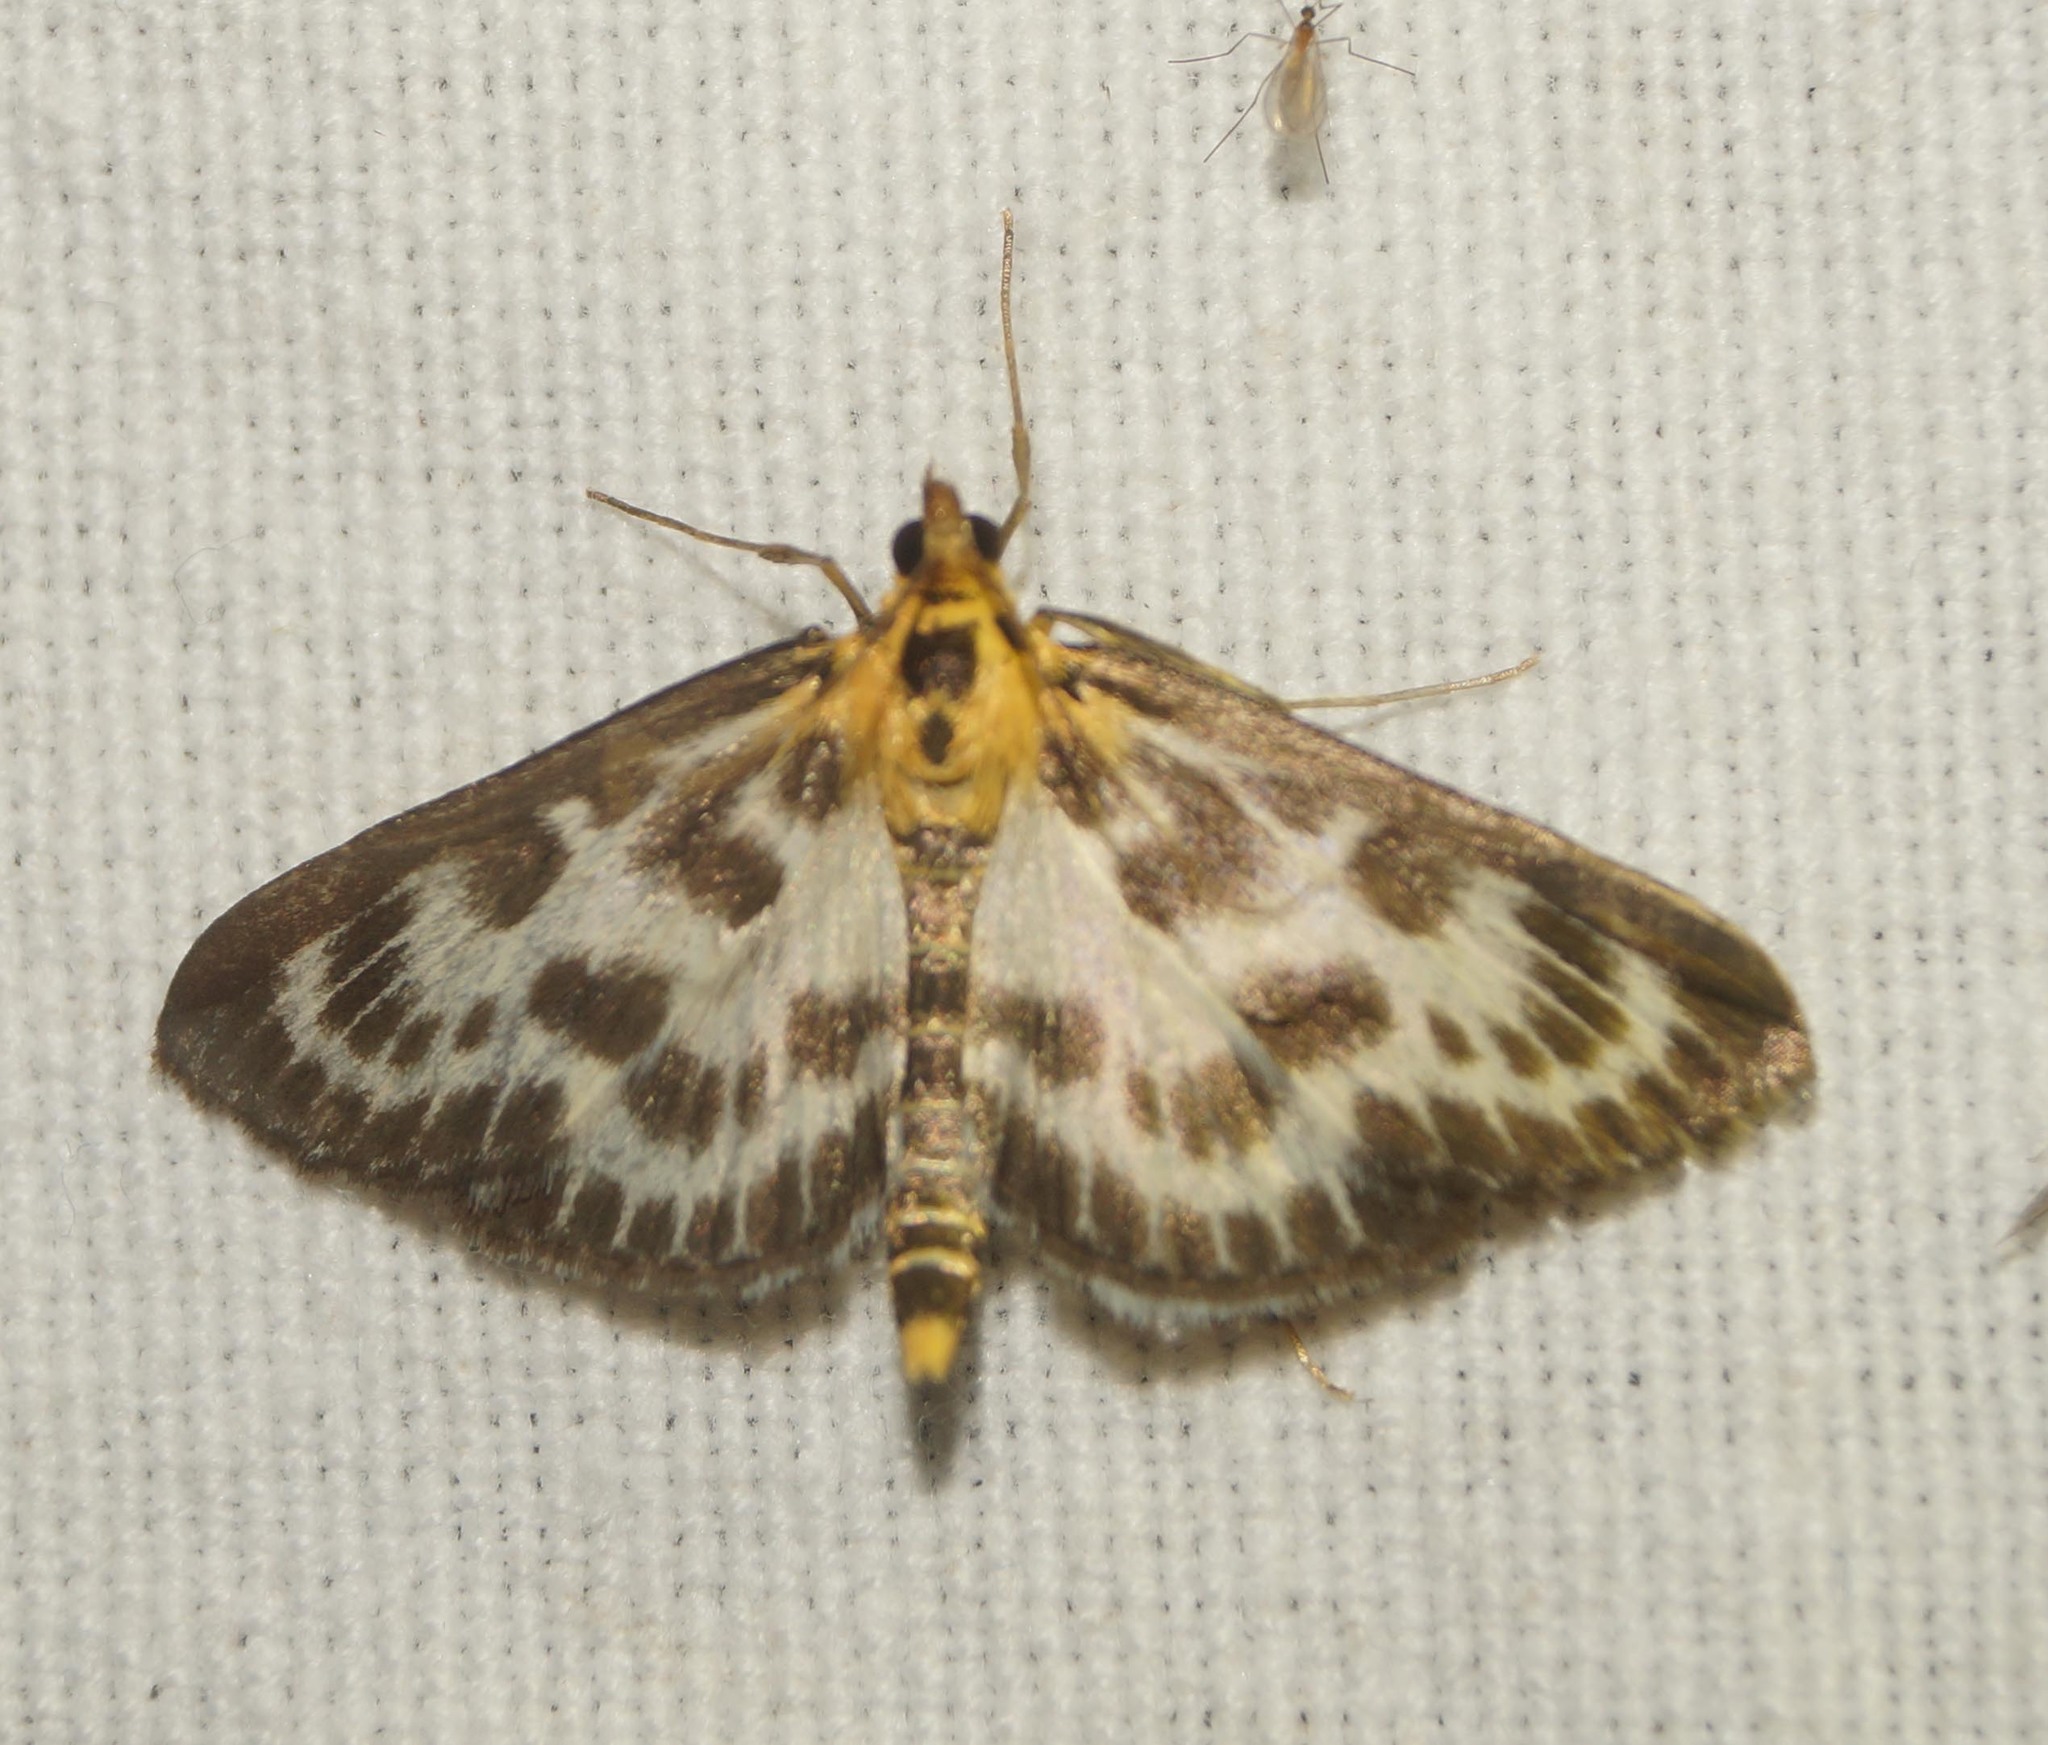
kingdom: Animalia
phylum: Arthropoda
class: Insecta
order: Lepidoptera
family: Crambidae
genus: Anania
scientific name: Anania hortulata
